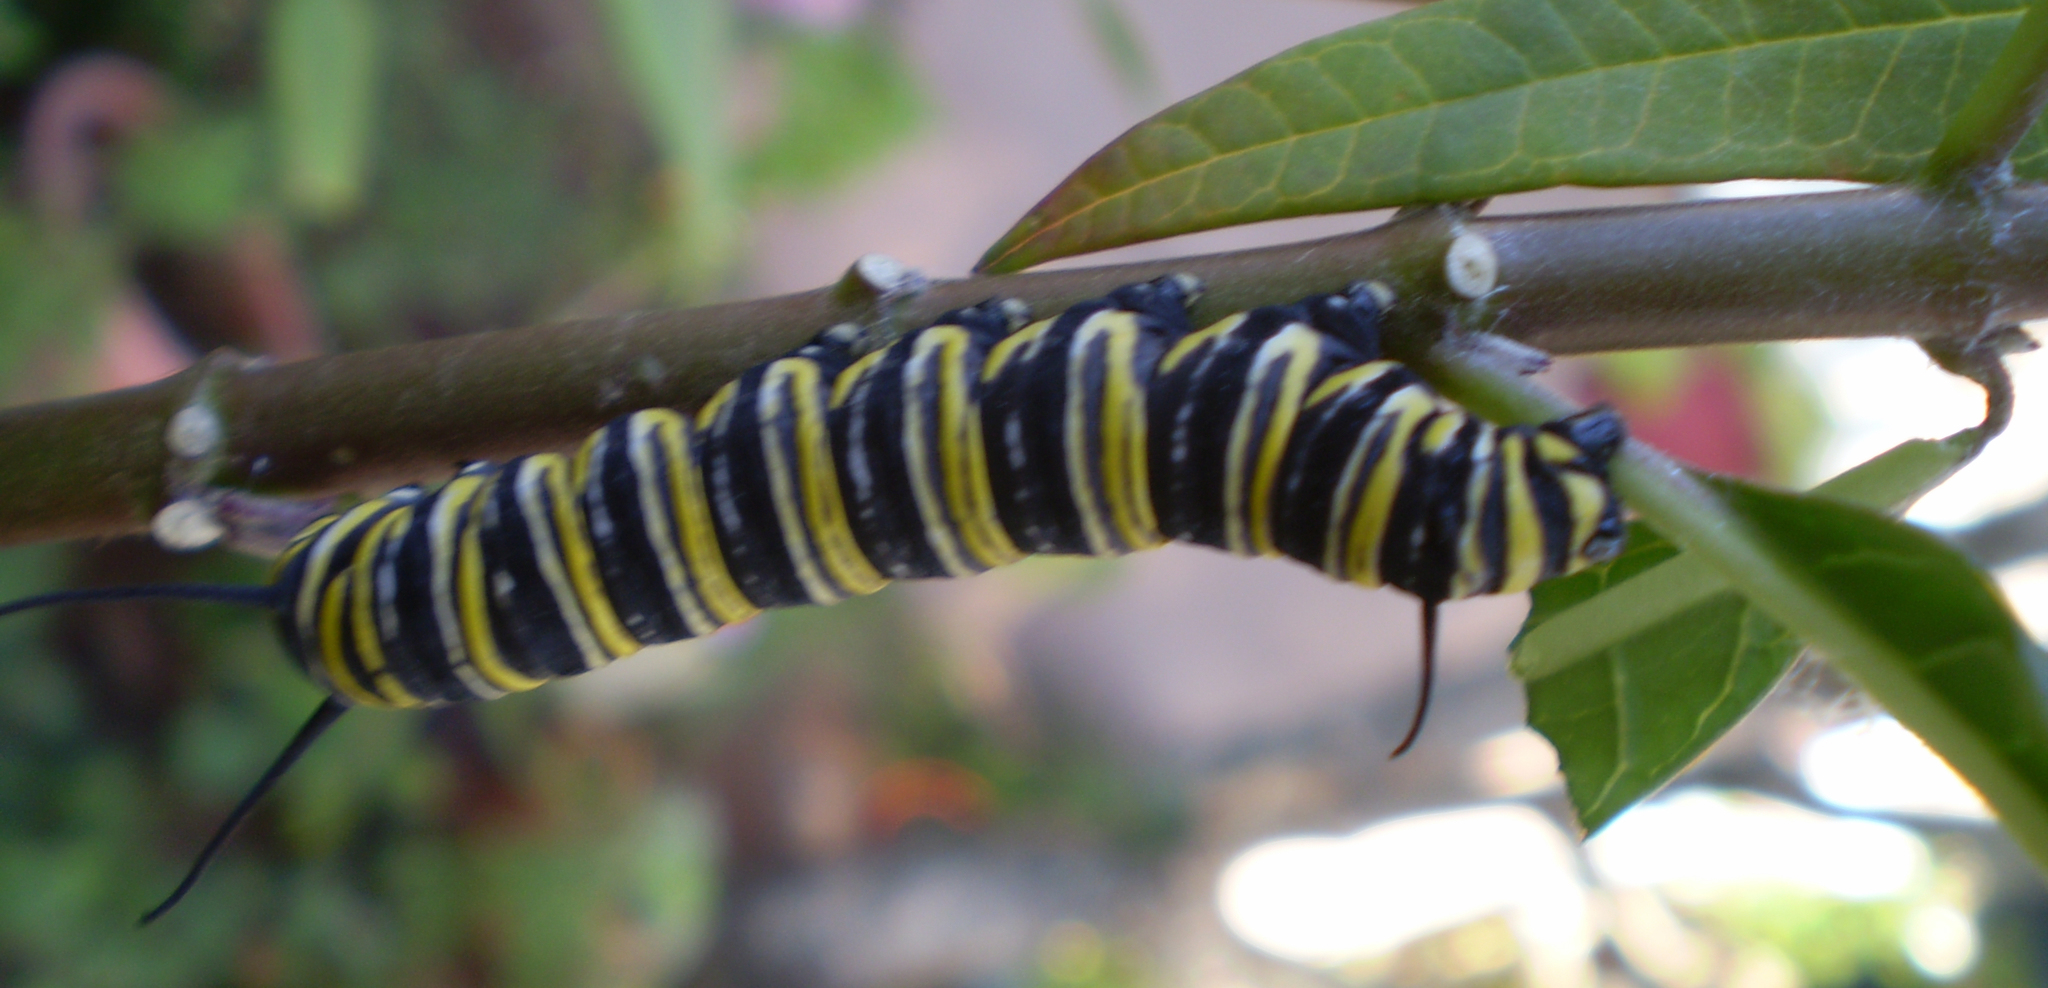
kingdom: Animalia
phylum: Arthropoda
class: Insecta
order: Lepidoptera
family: Nymphalidae
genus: Danaus
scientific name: Danaus plexippus
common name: Monarch
